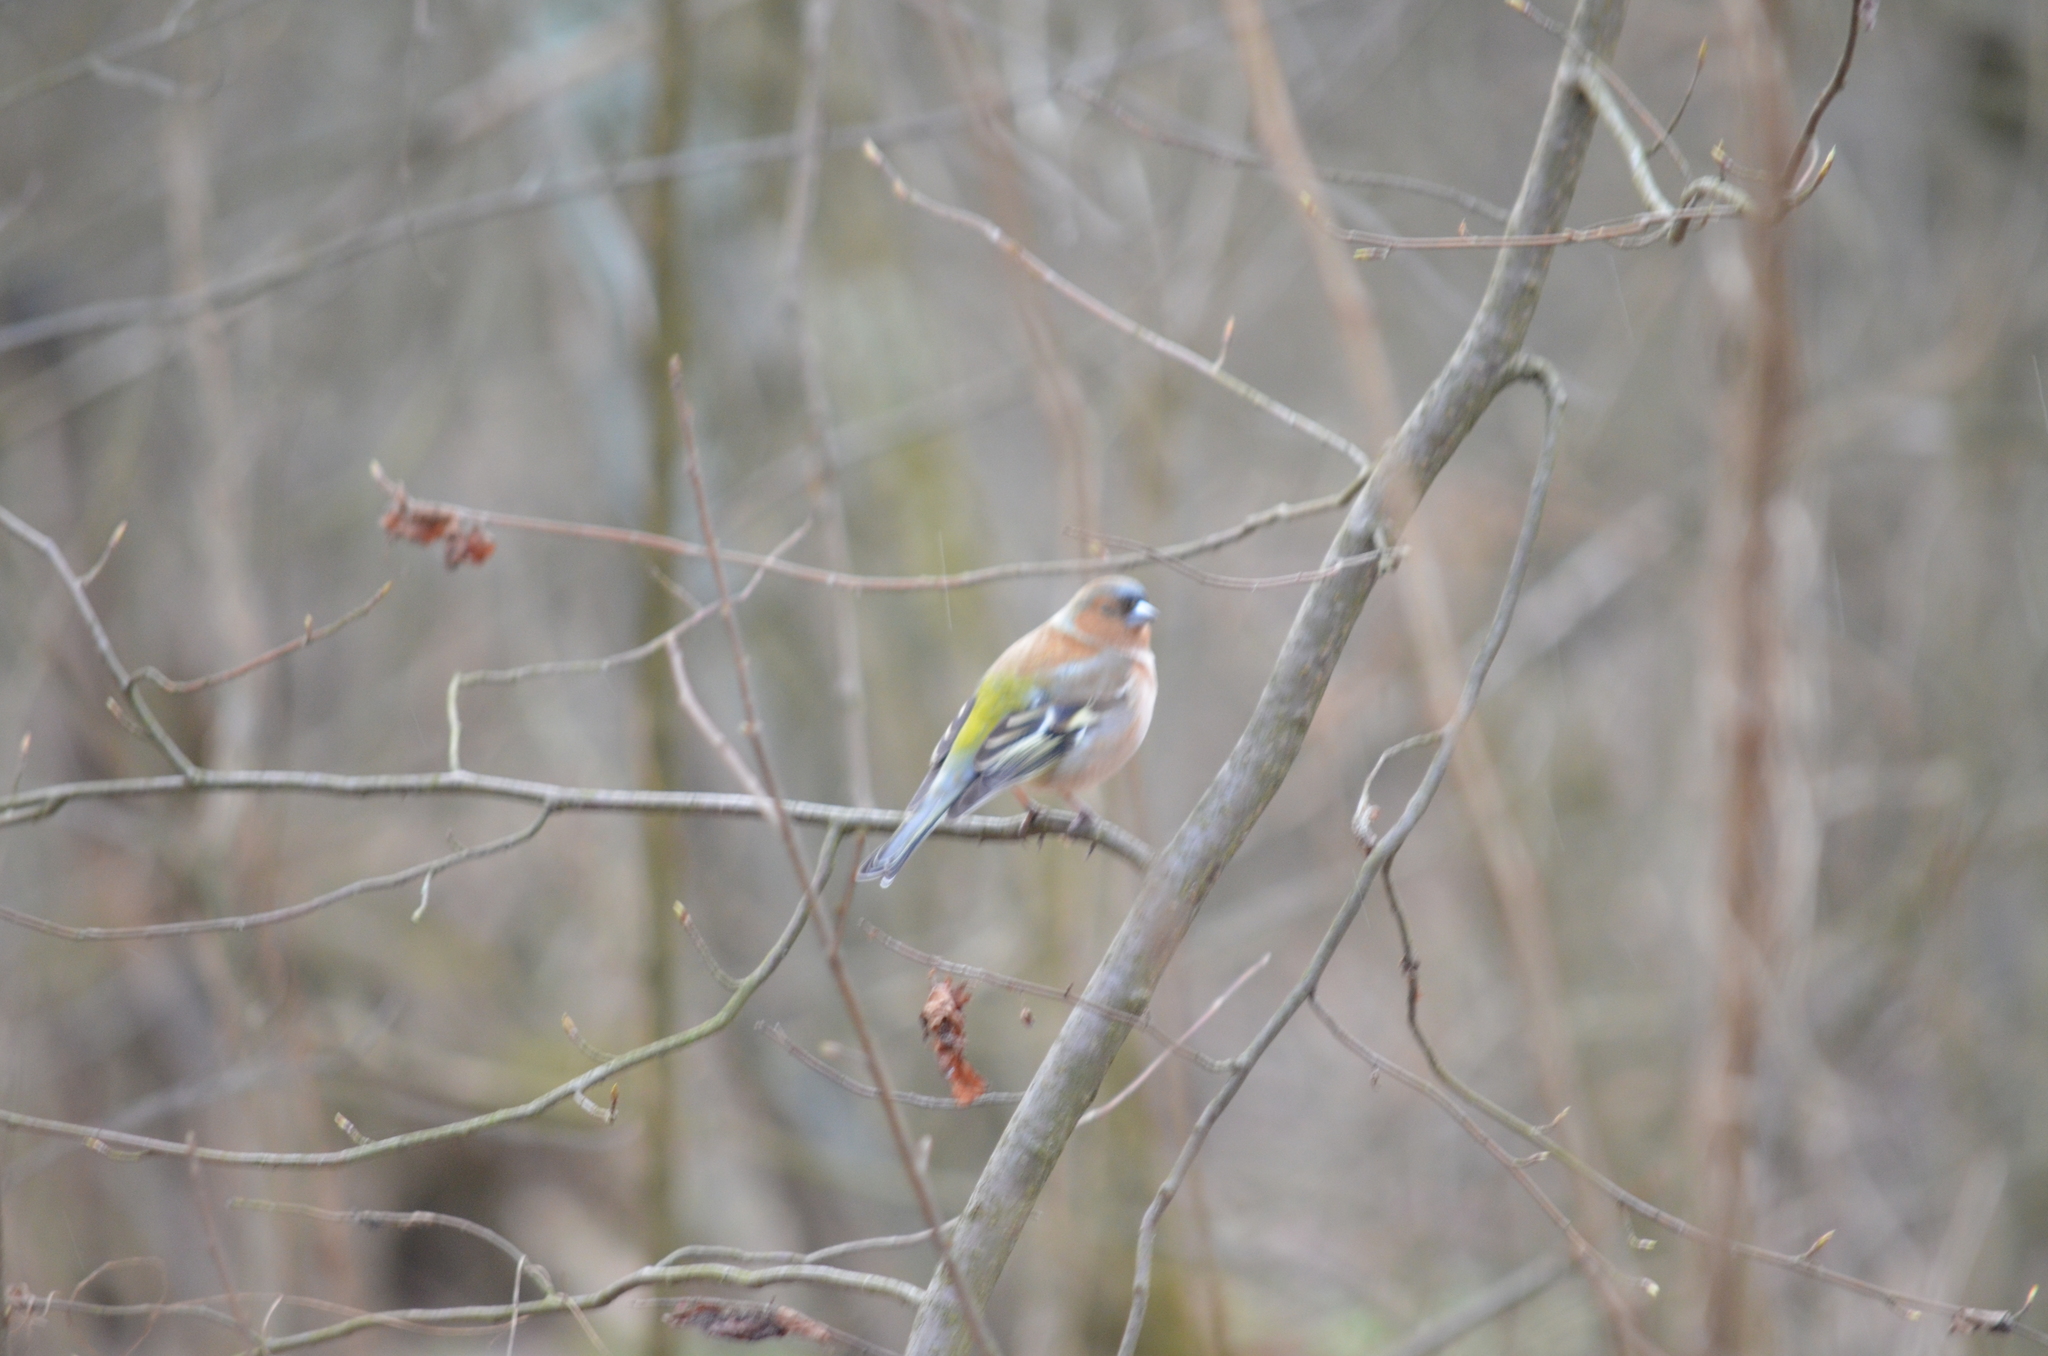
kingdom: Animalia
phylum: Chordata
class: Aves
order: Passeriformes
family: Fringillidae
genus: Fringilla
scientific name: Fringilla coelebs
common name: Common chaffinch
